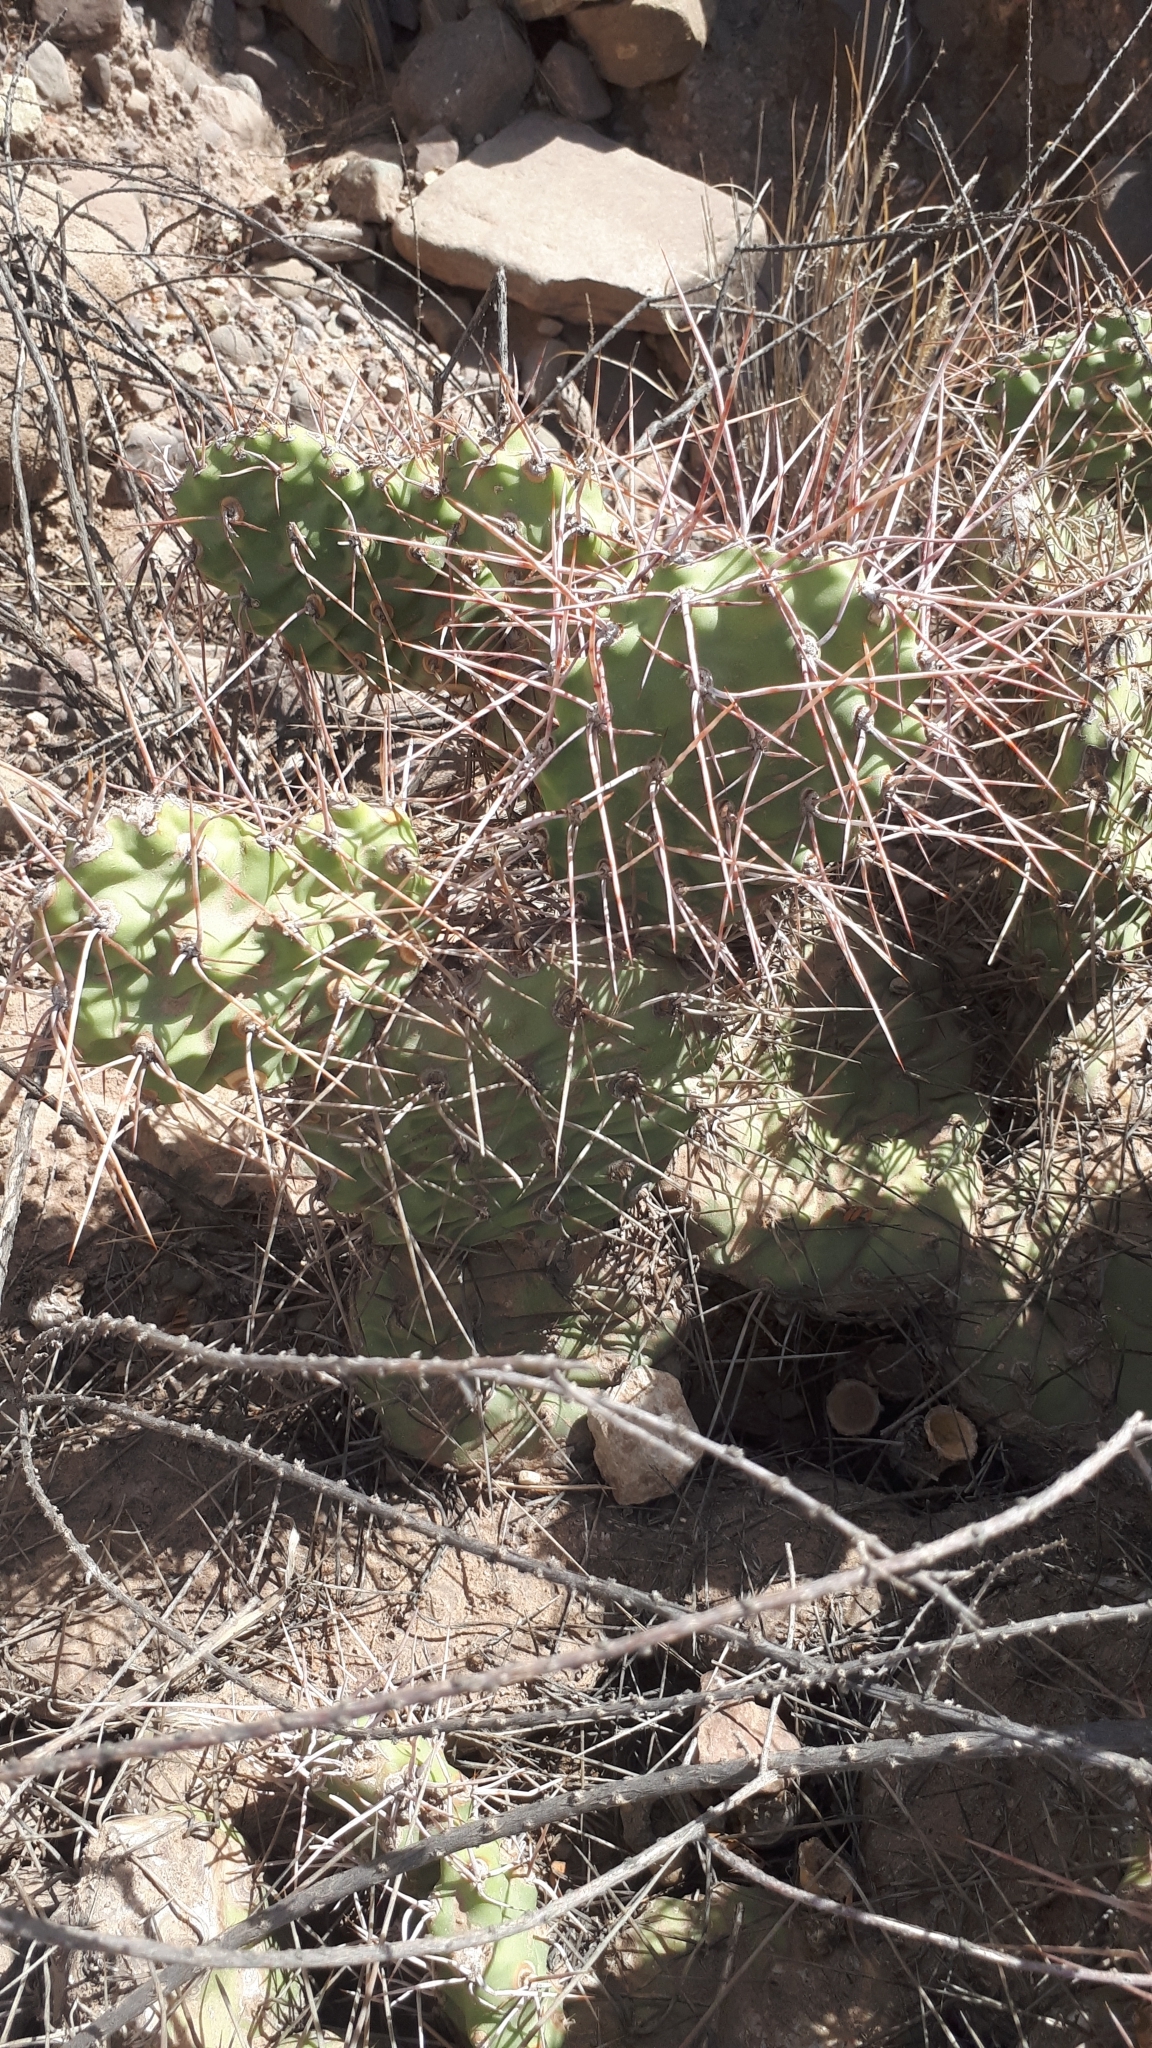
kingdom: Plantae
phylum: Tracheophyta
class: Magnoliopsida
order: Caryophyllales
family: Cactaceae
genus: Opuntia
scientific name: Opuntia sulphurea
